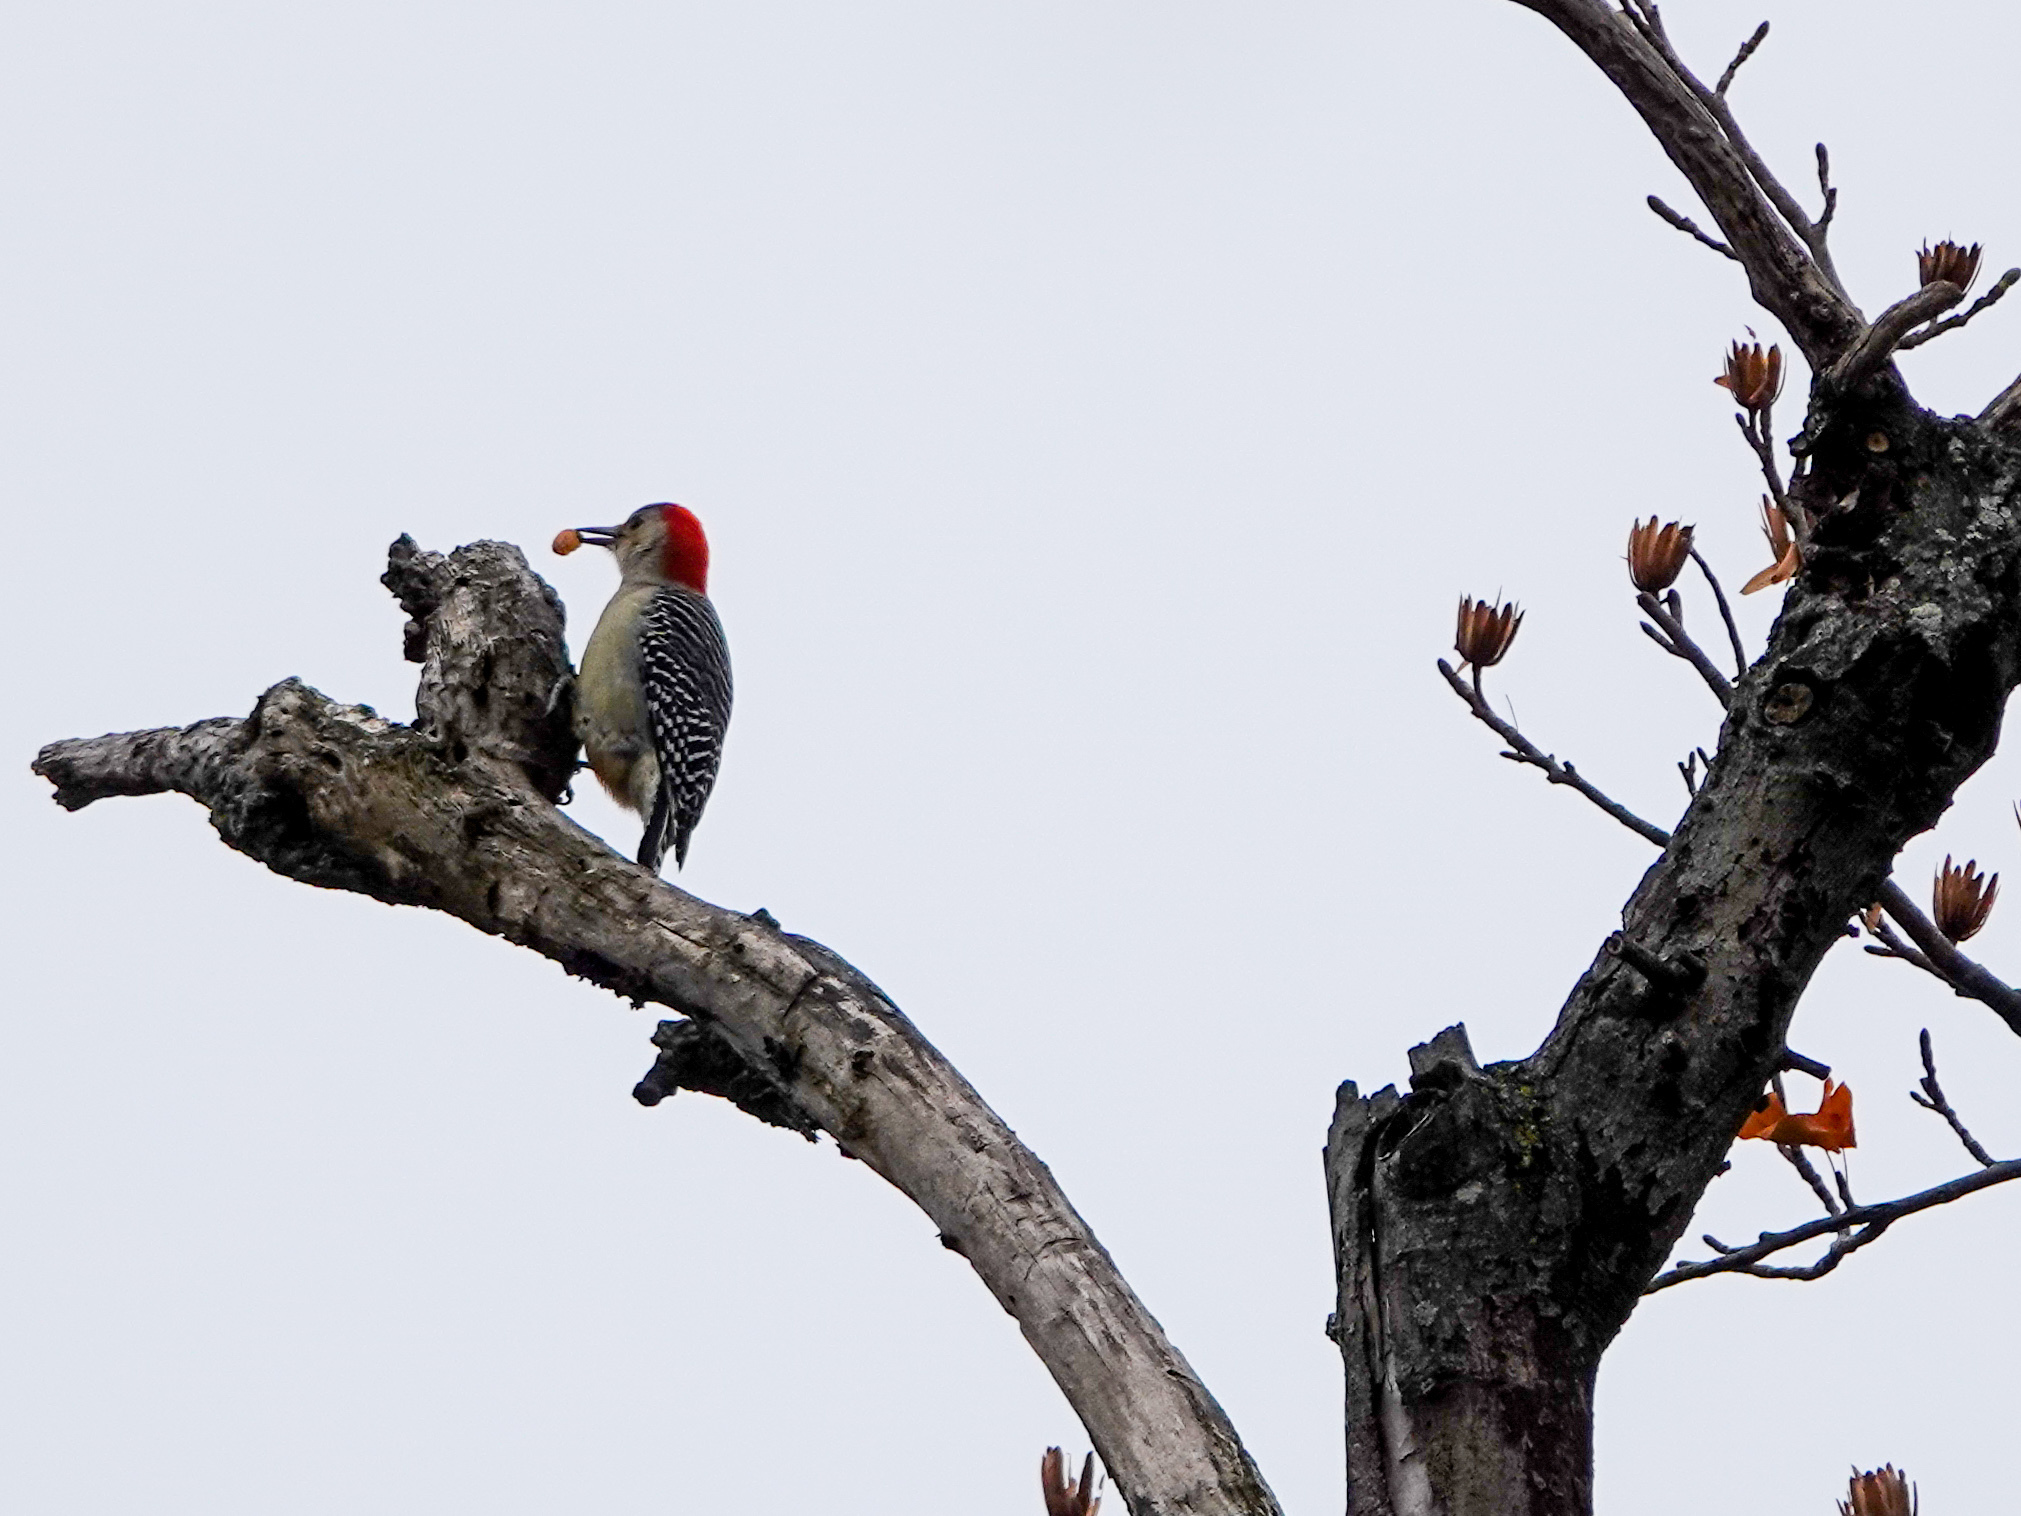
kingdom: Animalia
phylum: Chordata
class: Aves
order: Piciformes
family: Picidae
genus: Melanerpes
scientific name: Melanerpes carolinus
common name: Red-bellied woodpecker
